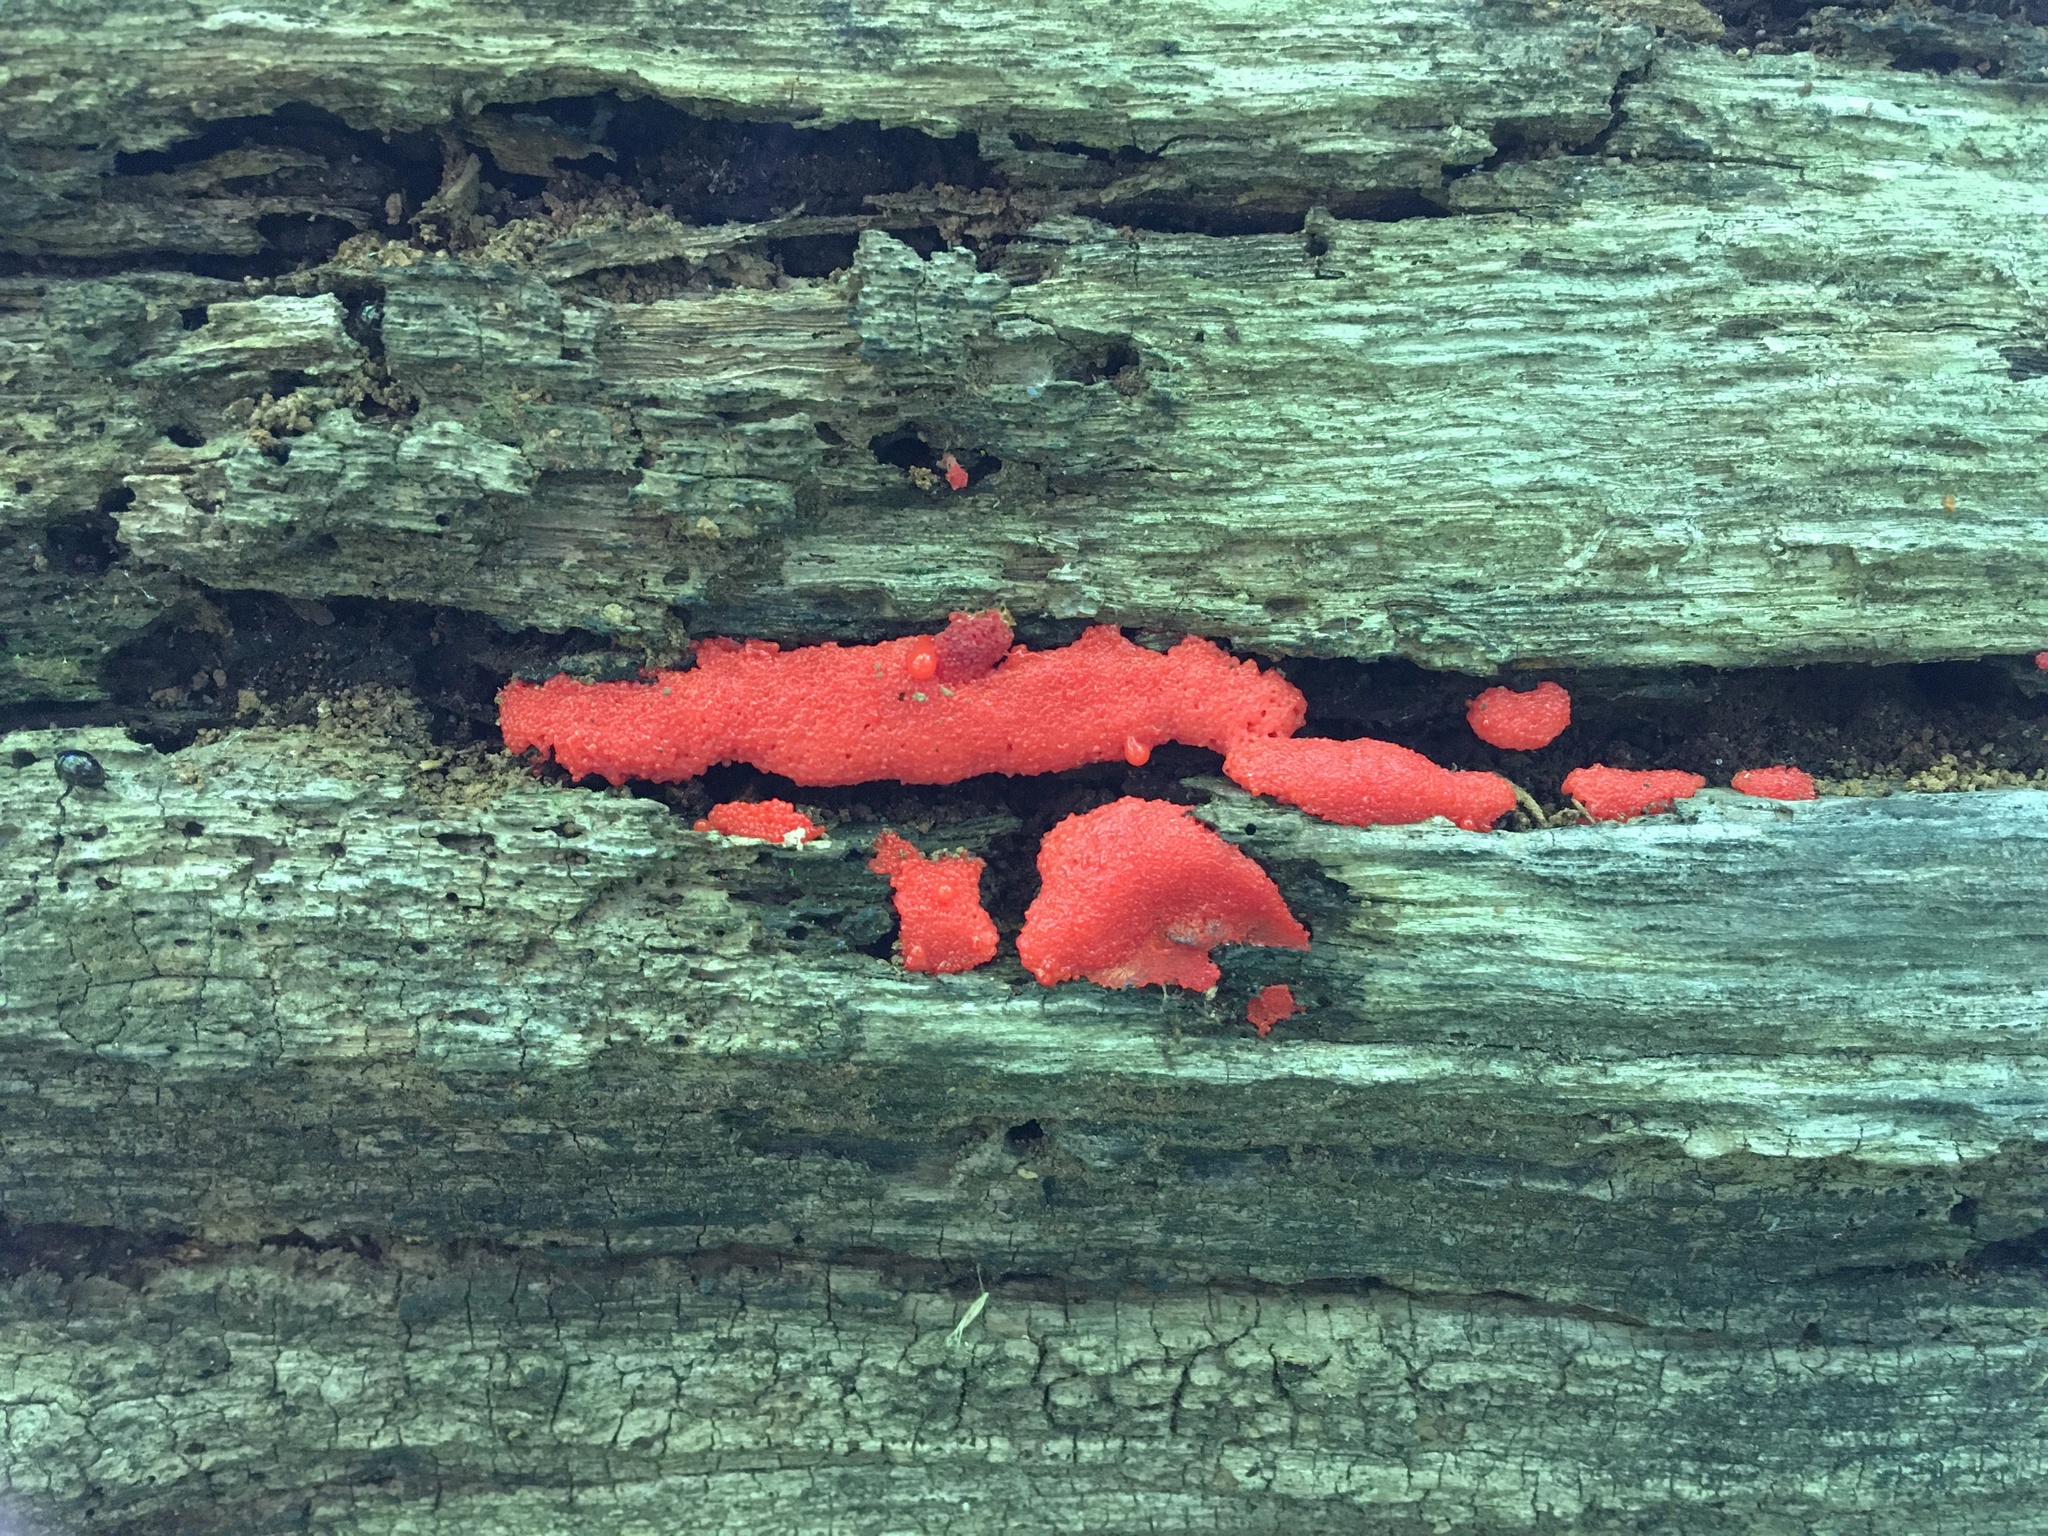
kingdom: Protozoa
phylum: Mycetozoa
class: Myxomycetes
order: Cribrariales
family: Tubiferaceae
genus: Tubifera
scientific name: Tubifera ferruginosa
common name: Red raspberry slime mold
